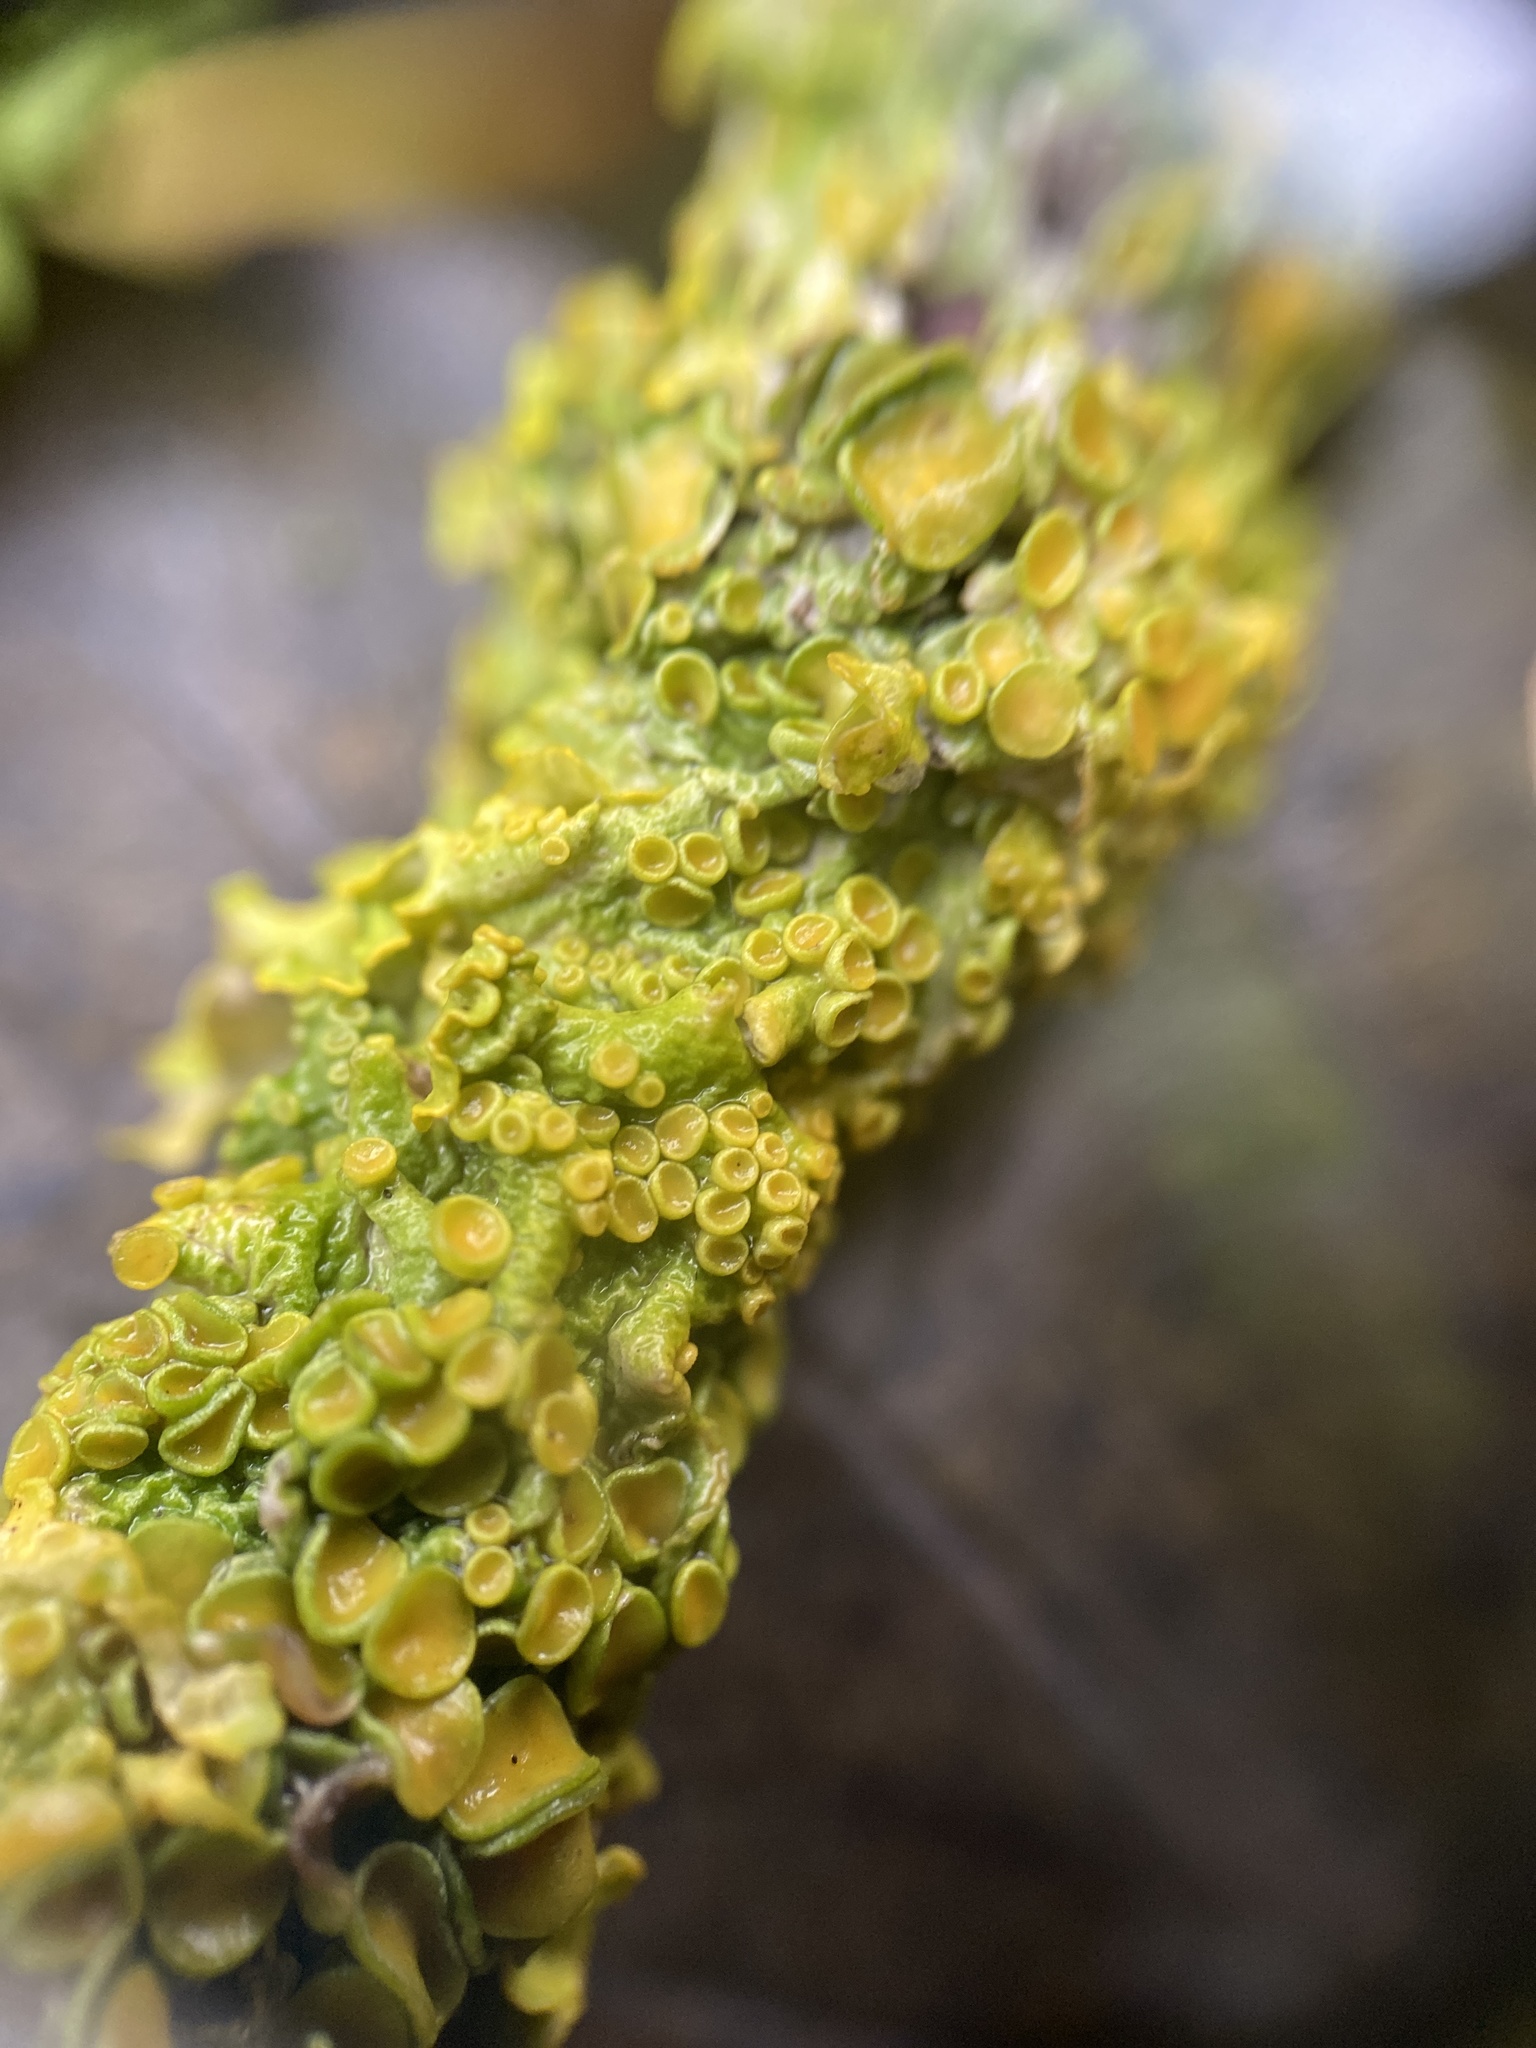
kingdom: Fungi
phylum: Ascomycota
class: Lecanoromycetes
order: Teloschistales
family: Teloschistaceae
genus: Xanthoria
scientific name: Xanthoria parietina
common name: Common orange lichen
